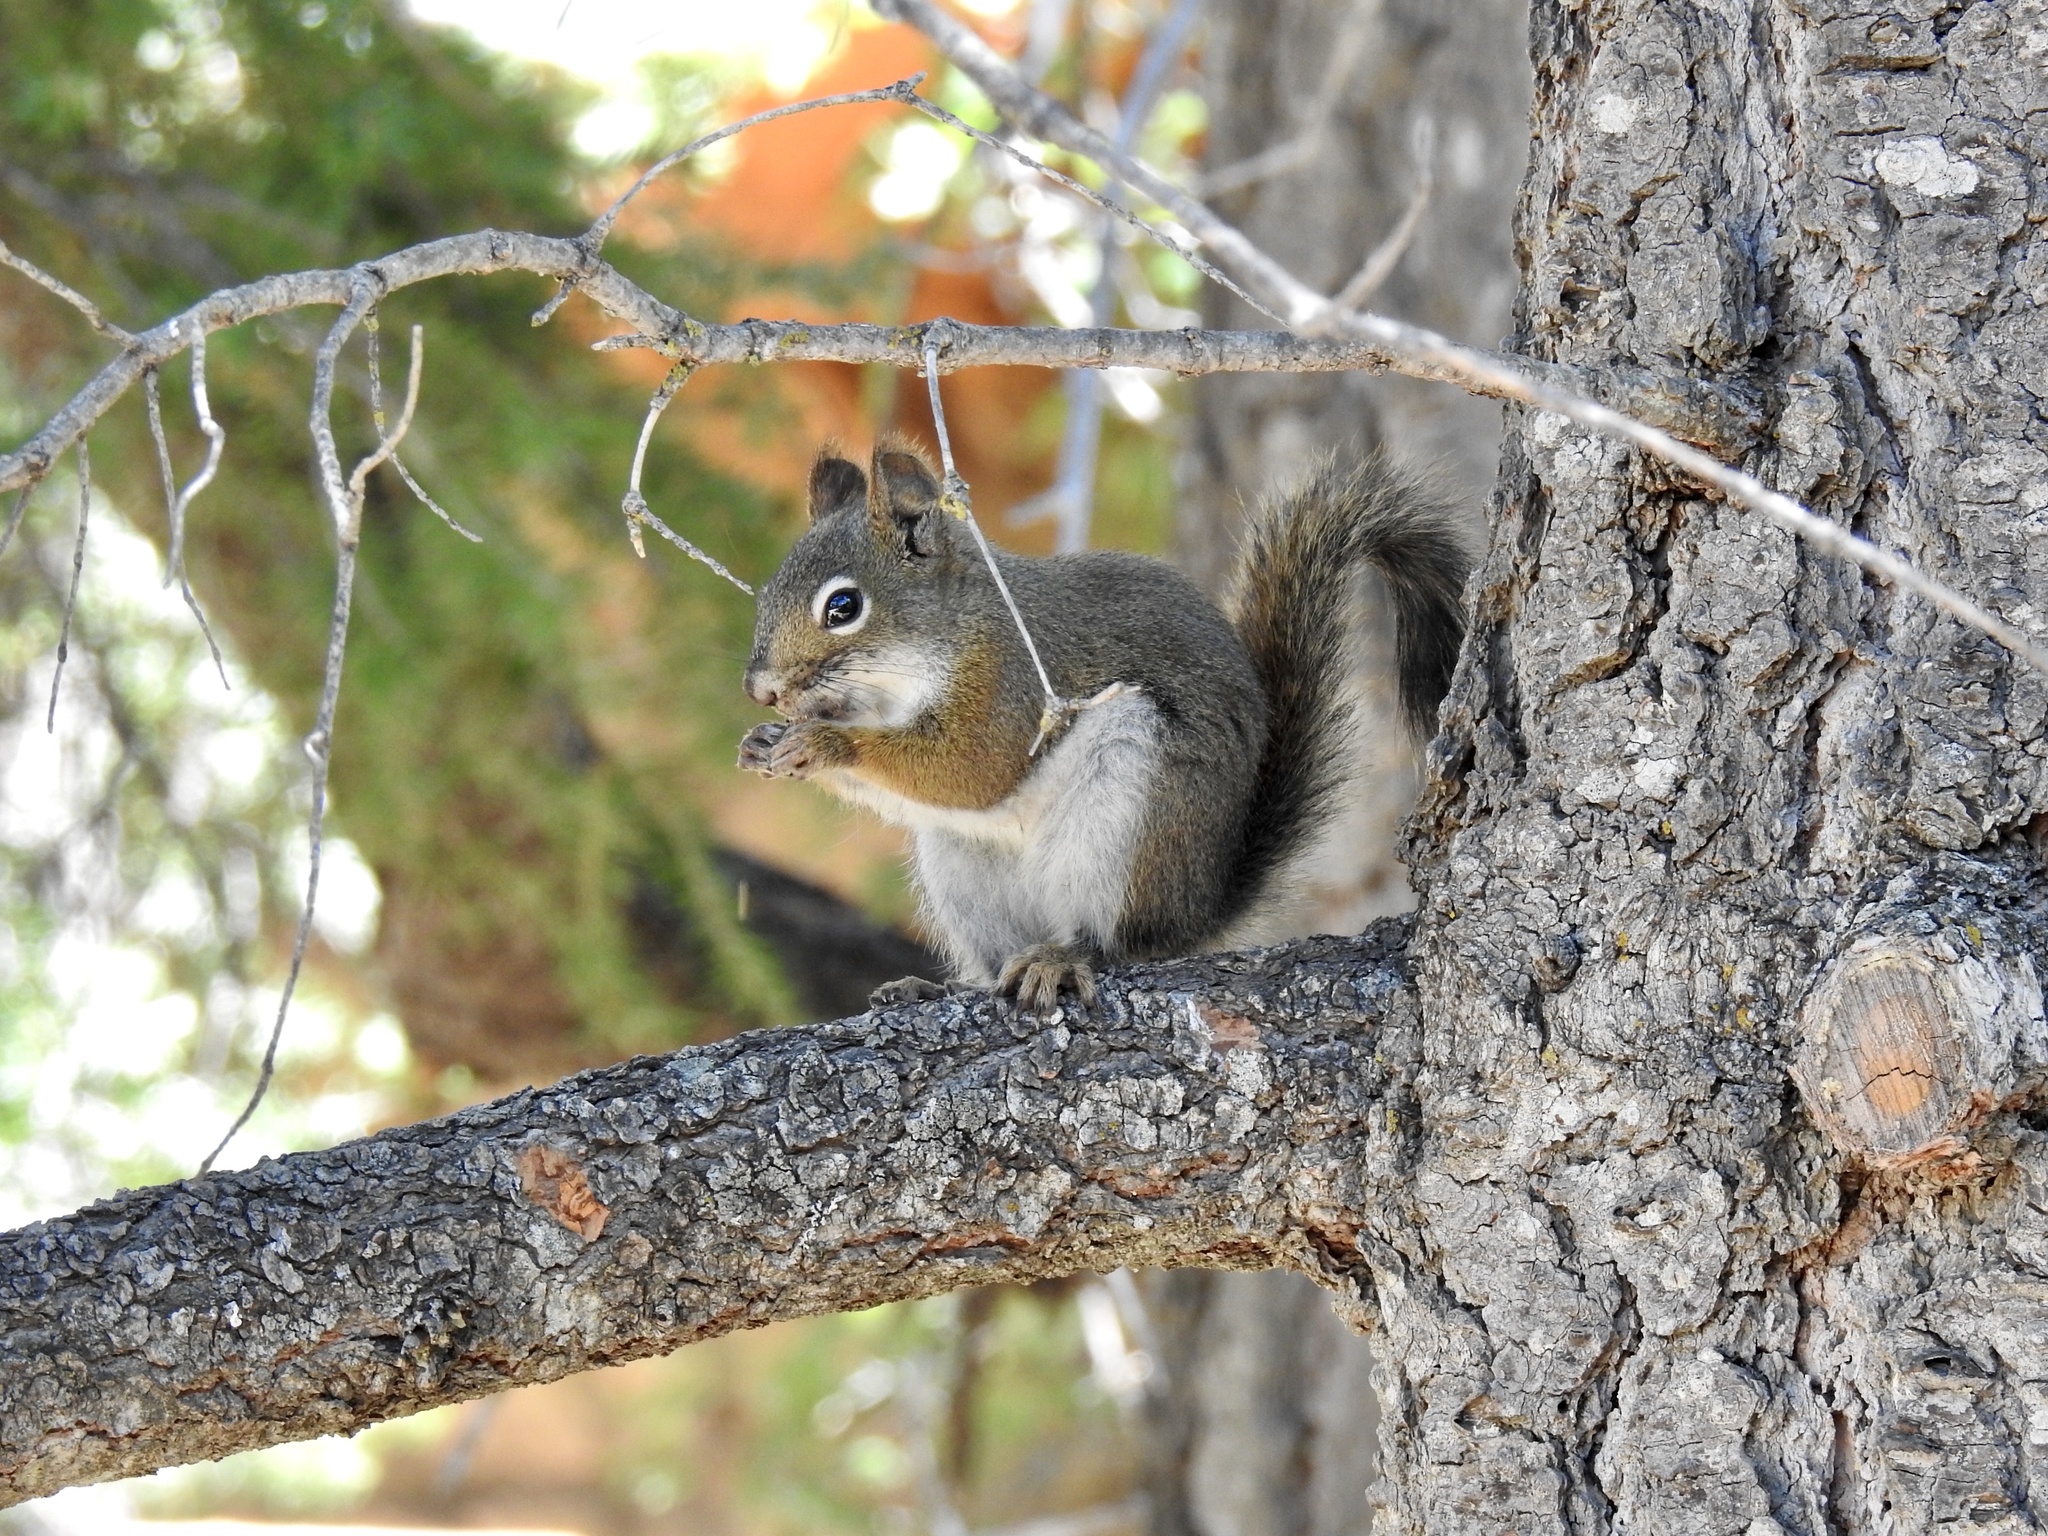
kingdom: Animalia
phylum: Chordata
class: Mammalia
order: Rodentia
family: Sciuridae
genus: Tamiasciurus
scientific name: Tamiasciurus hudsonicus
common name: Red squirrel
